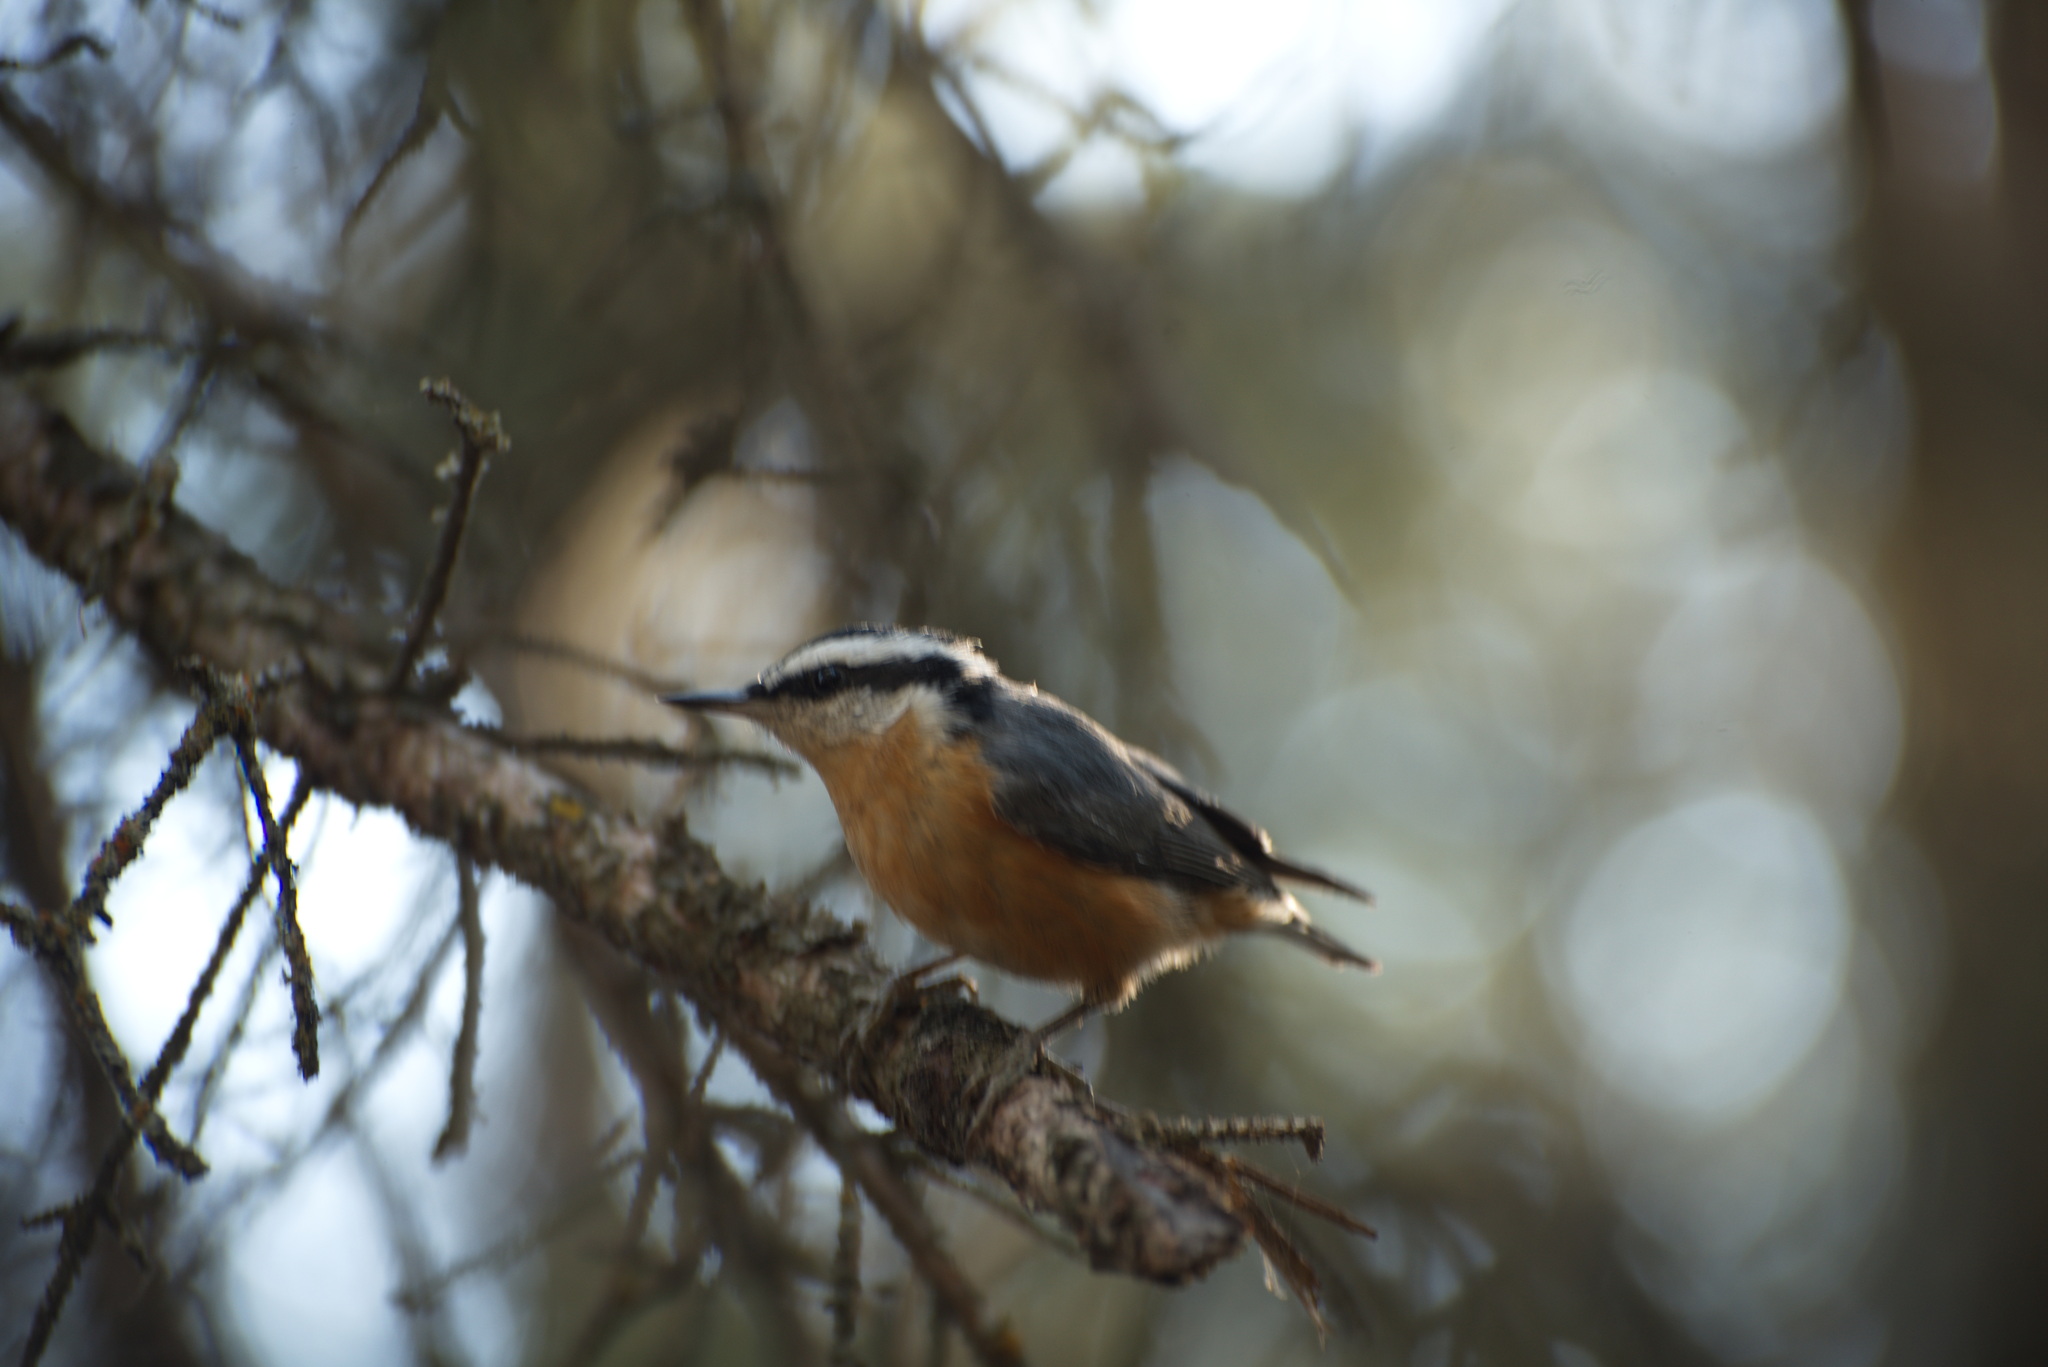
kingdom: Animalia
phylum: Chordata
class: Aves
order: Passeriformes
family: Sittidae
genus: Sitta
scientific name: Sitta canadensis
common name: Red-breasted nuthatch
